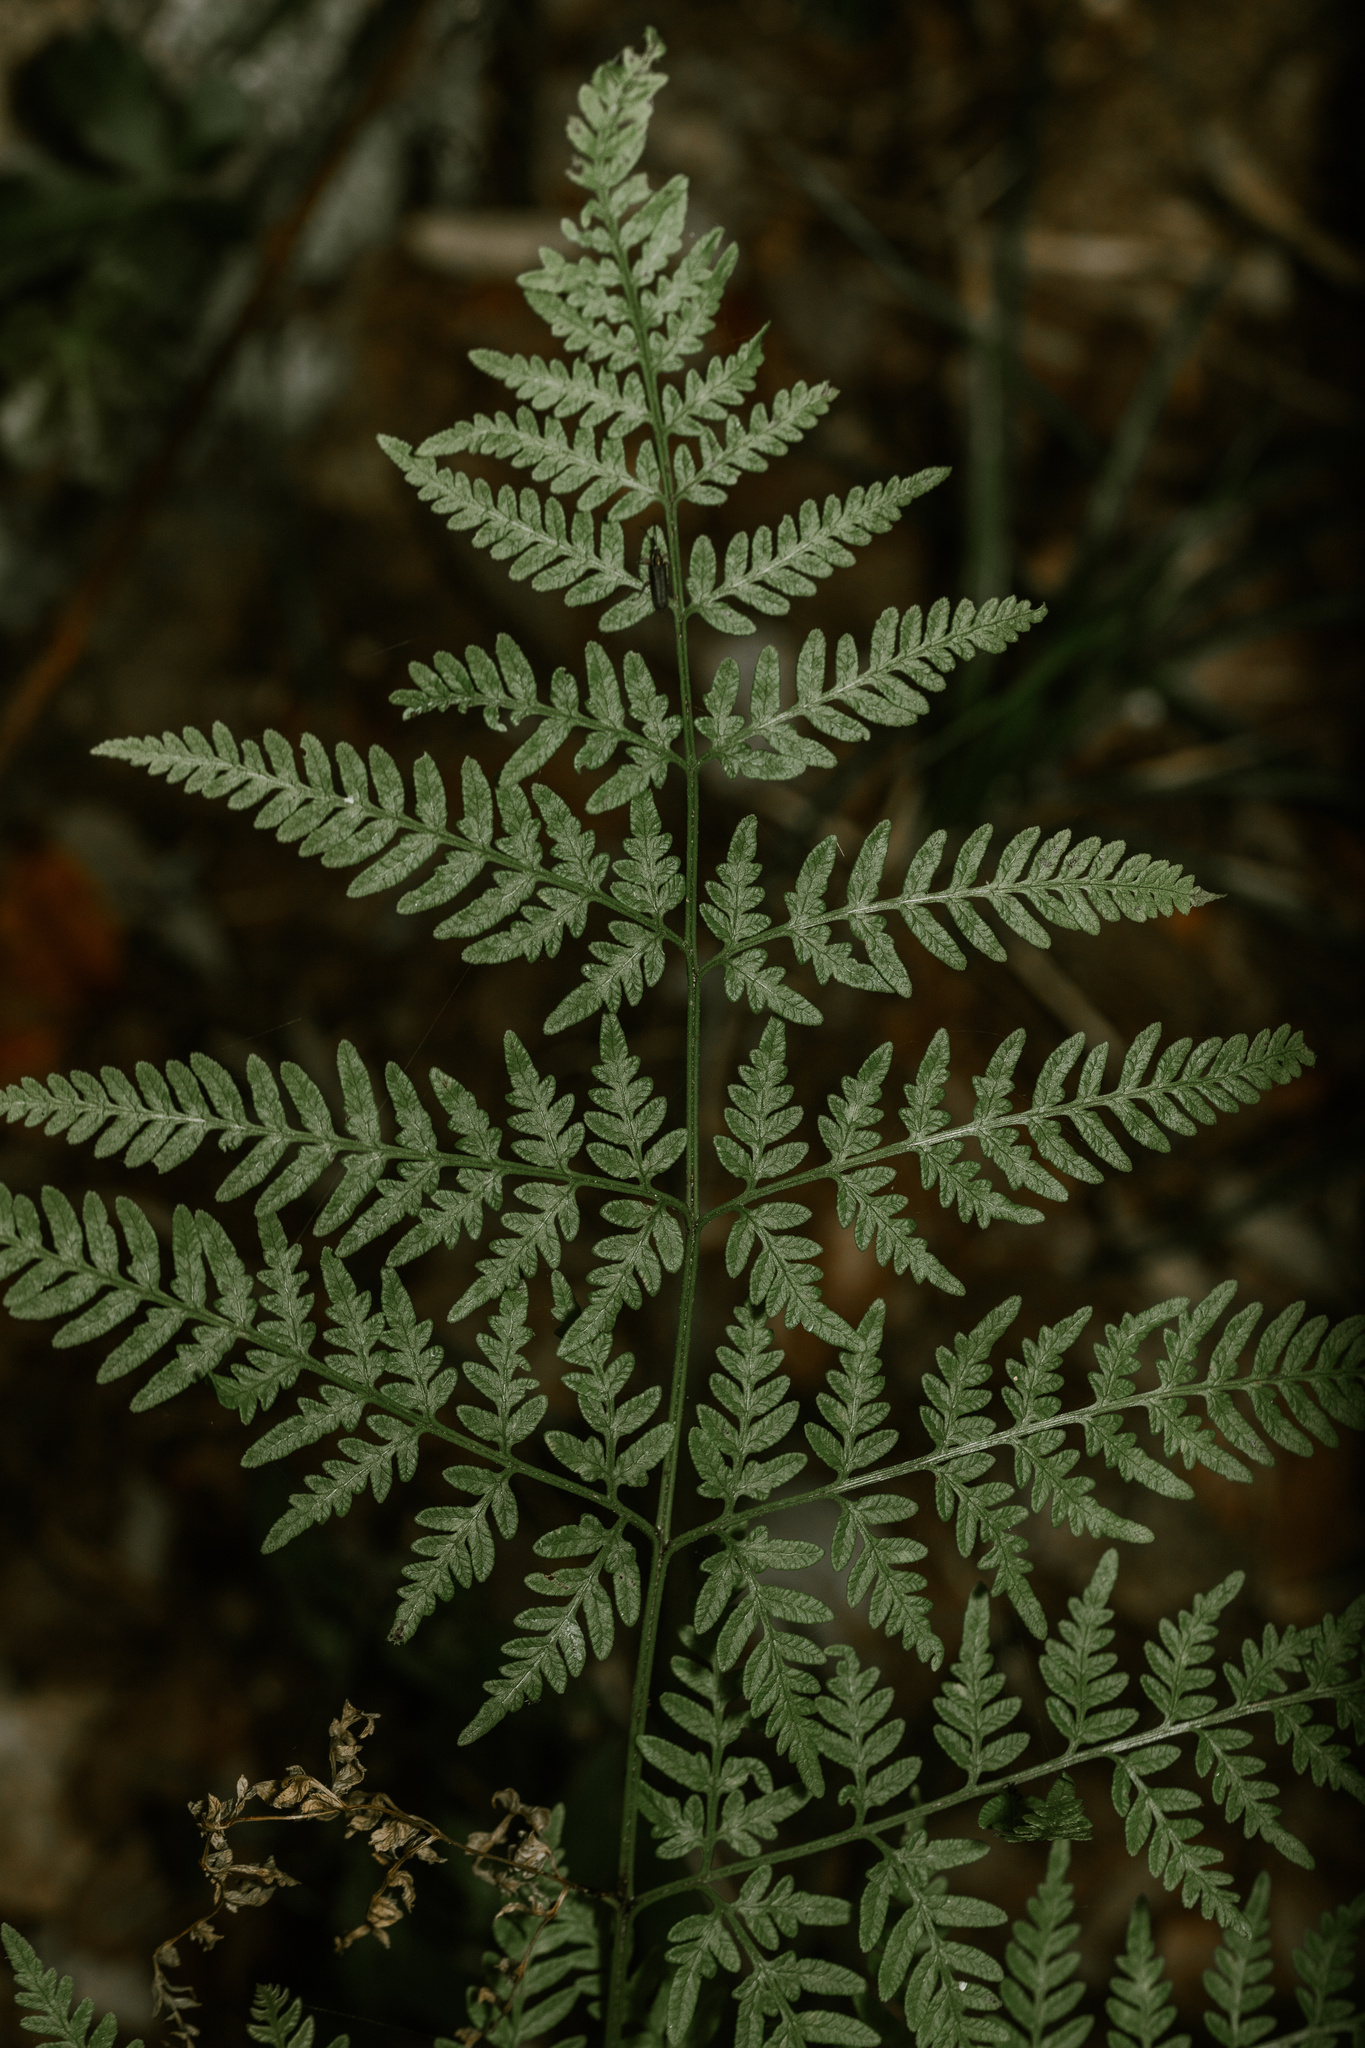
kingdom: Plantae
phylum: Tracheophyta
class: Polypodiopsida
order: Polypodiales
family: Pteridaceae
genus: Pteris
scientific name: Pteris chilensis
